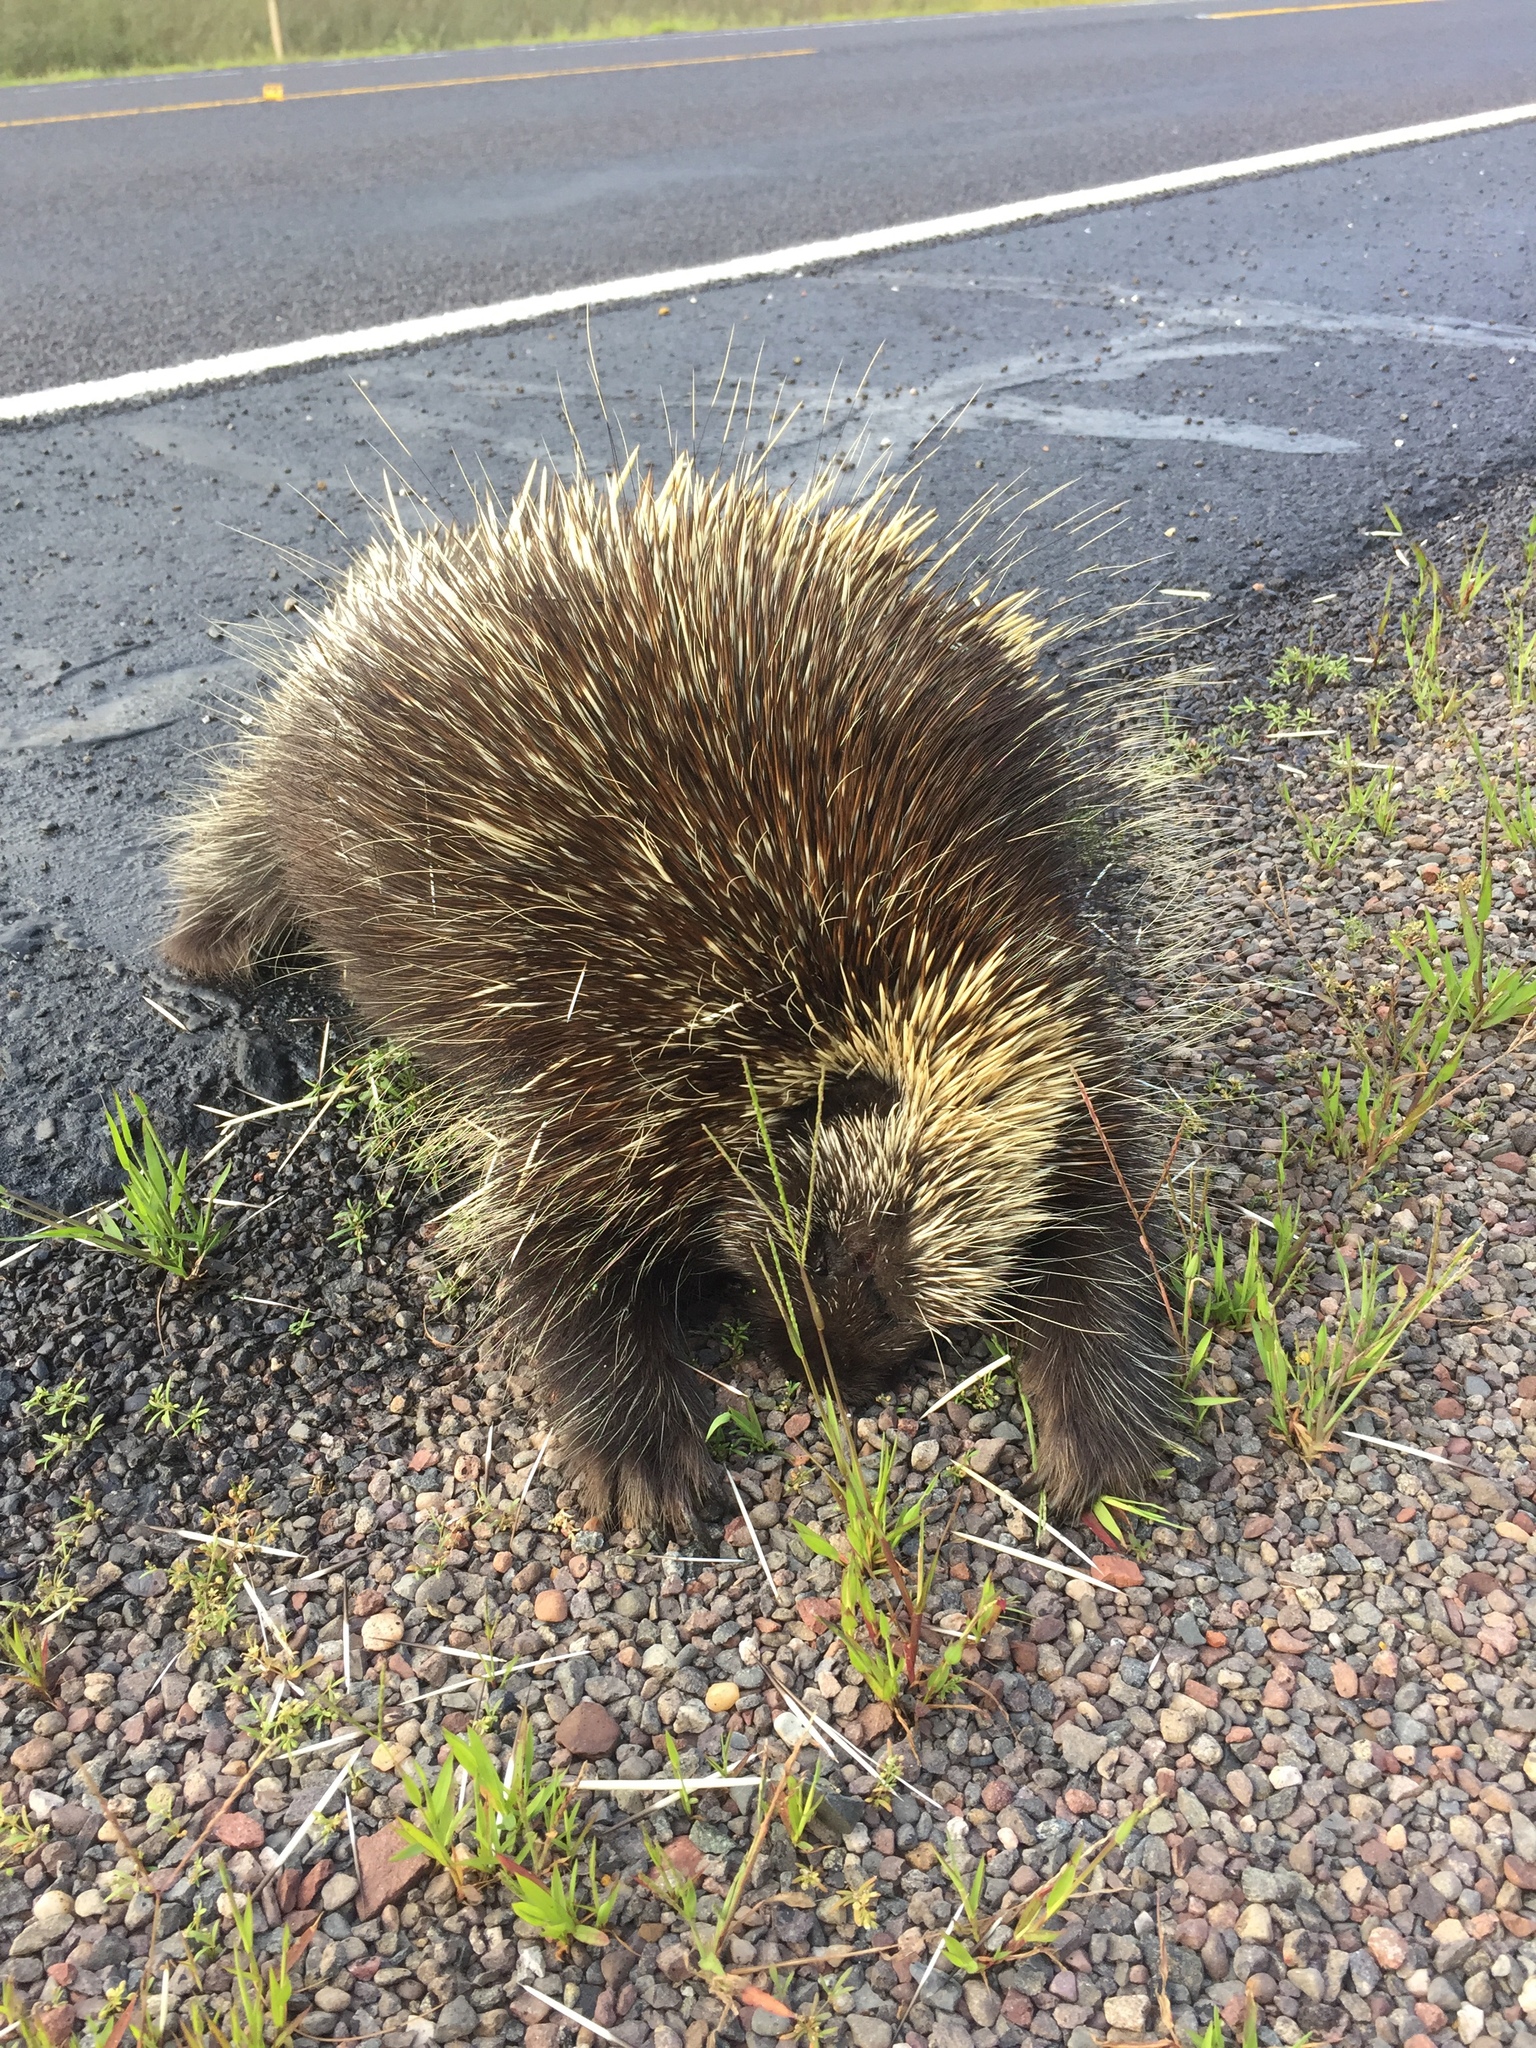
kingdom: Animalia
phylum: Chordata
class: Mammalia
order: Rodentia
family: Erethizontidae
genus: Erethizon
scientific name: Erethizon dorsatus
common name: North american porcupine
